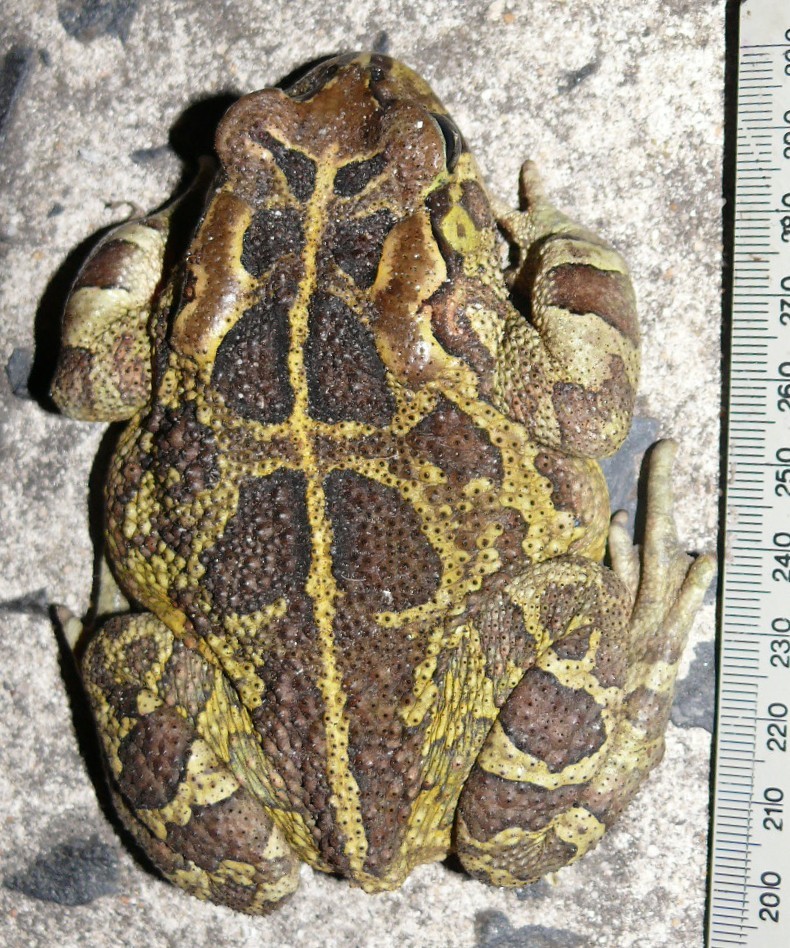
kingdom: Animalia
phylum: Chordata
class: Amphibia
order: Anura
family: Bufonidae
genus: Sclerophrys
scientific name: Sclerophrys pantherina
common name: Panther toad
